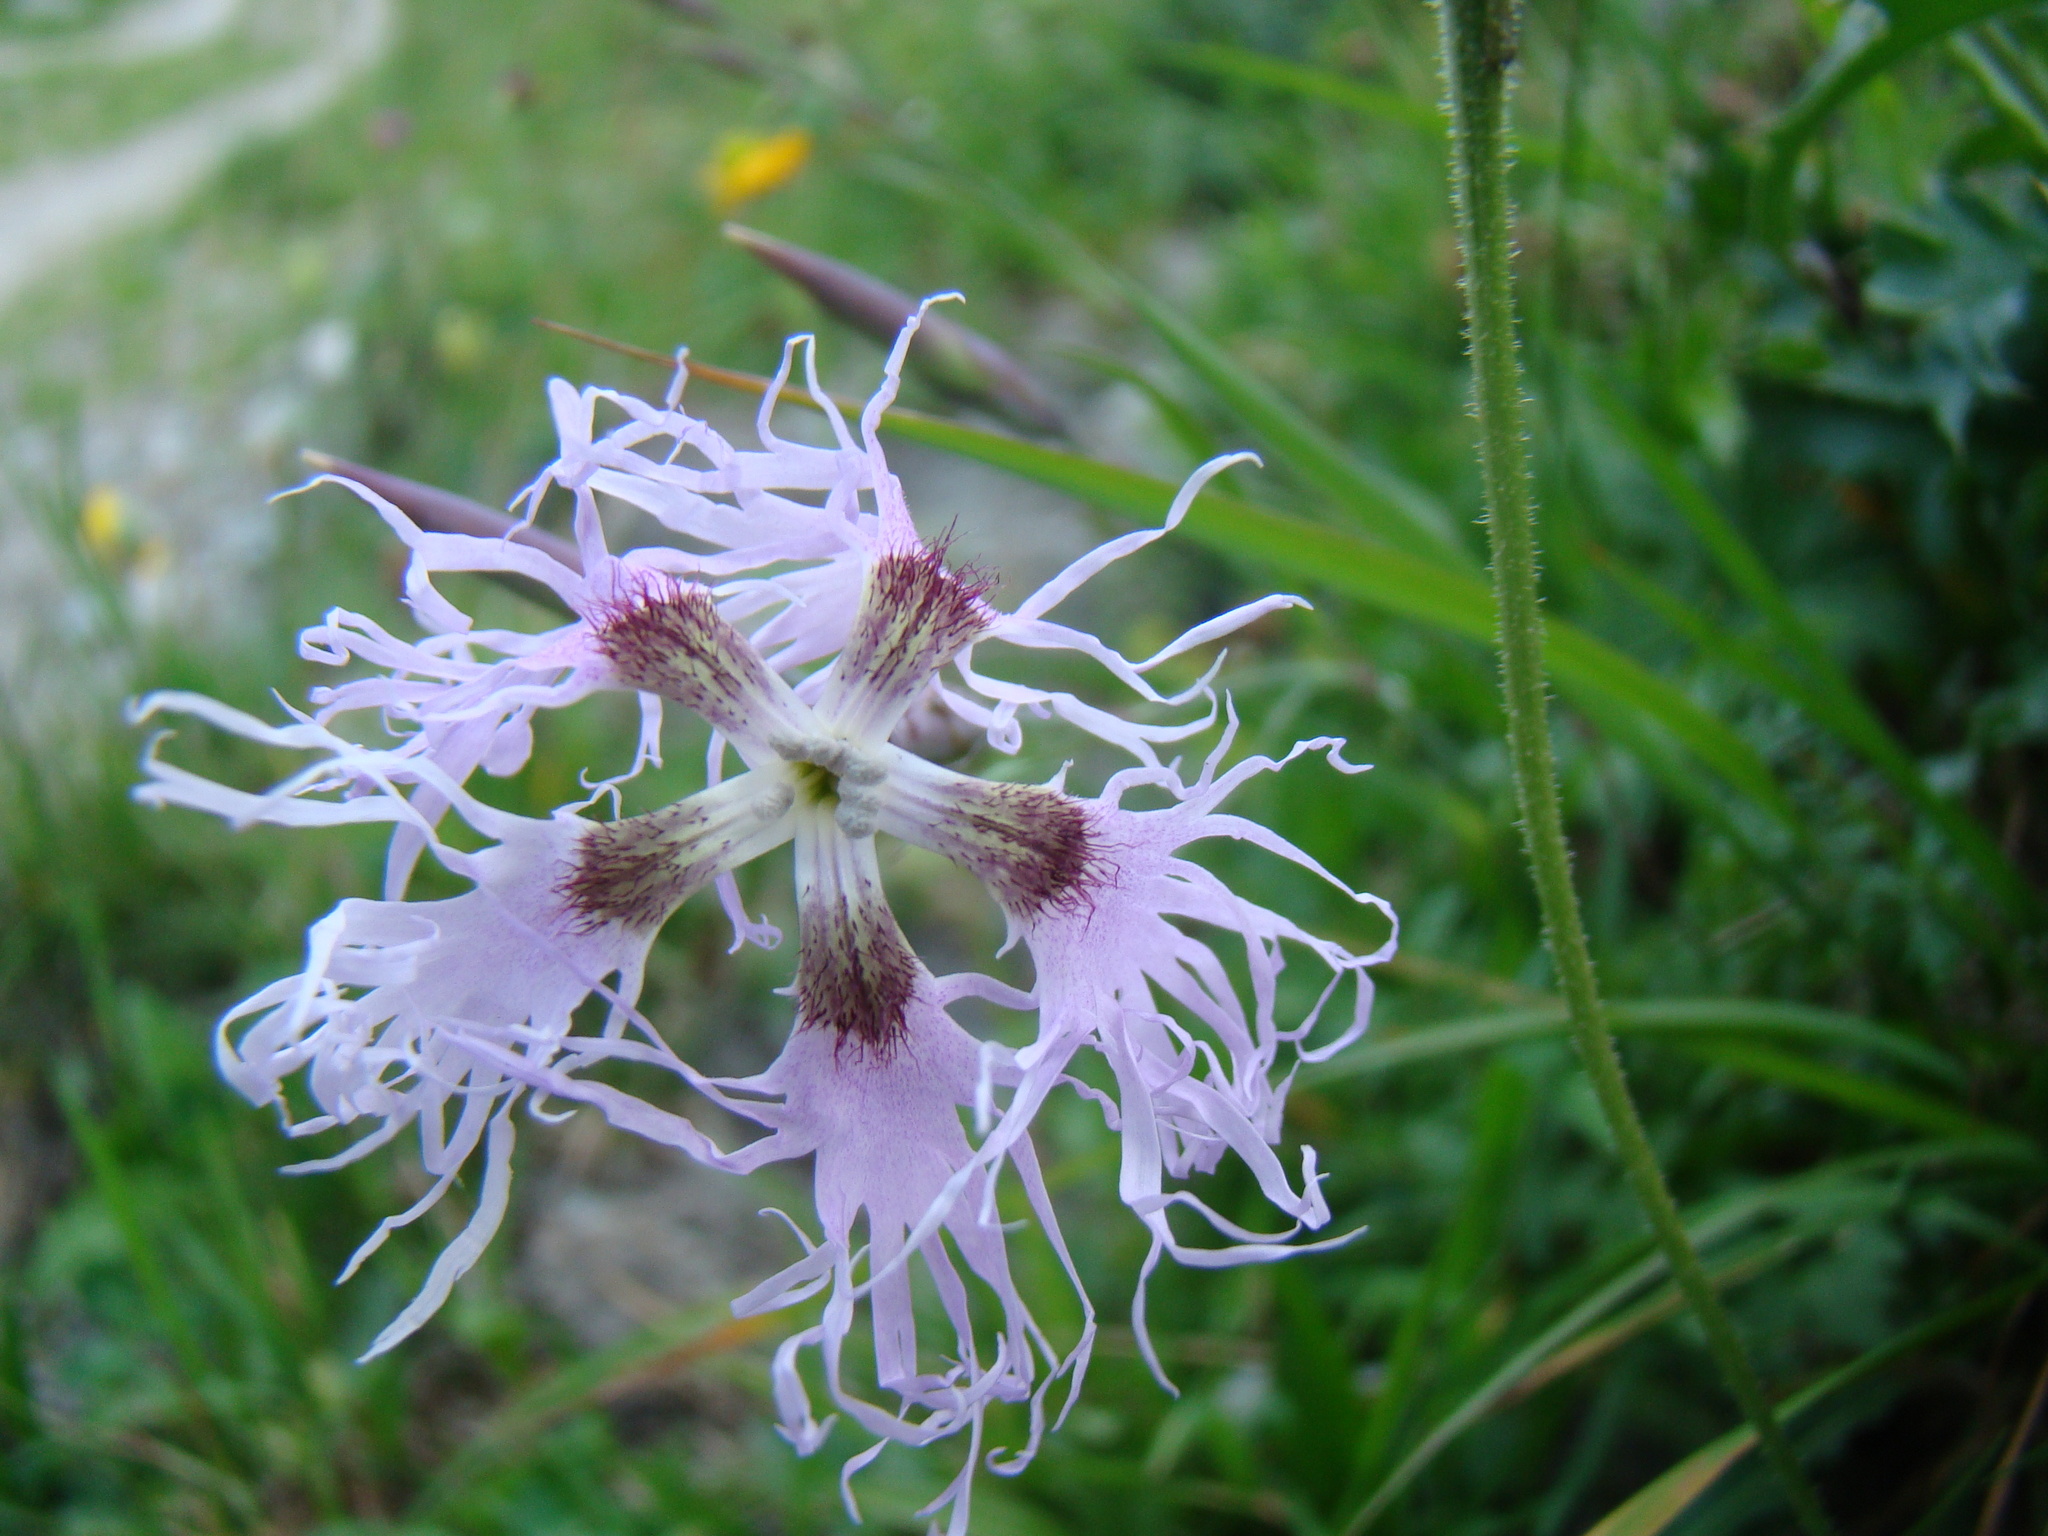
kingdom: Plantae
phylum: Tracheophyta
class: Magnoliopsida
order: Caryophyllales
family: Caryophyllaceae
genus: Dianthus
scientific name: Dianthus superbus
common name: Fringed pink
